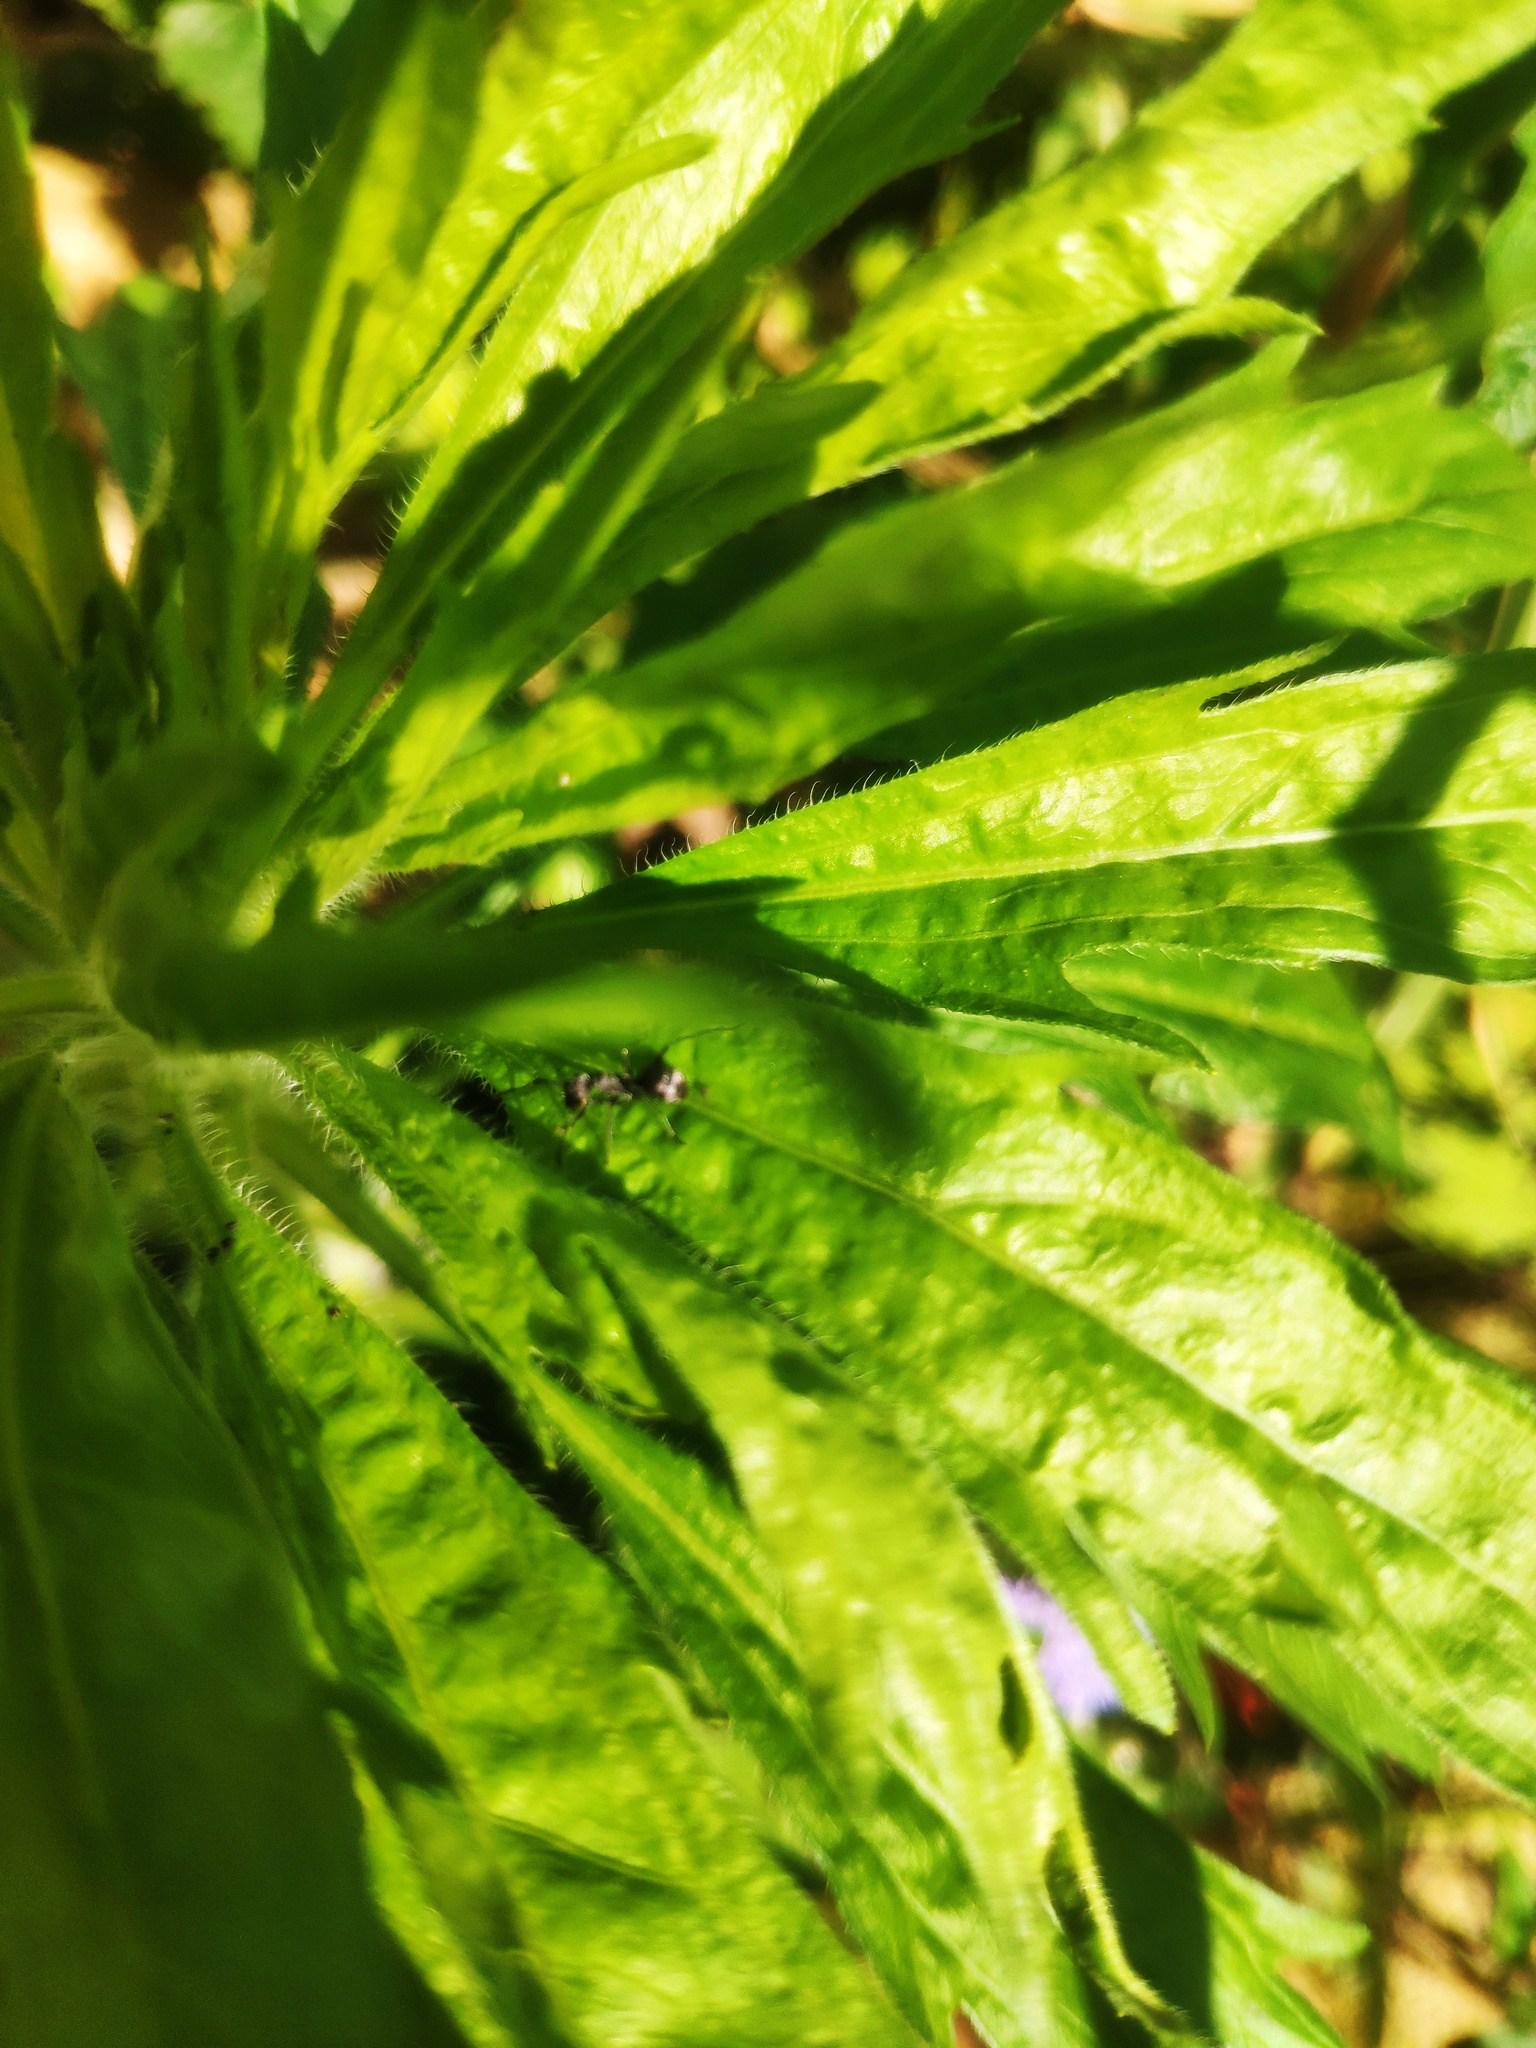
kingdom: Animalia
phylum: Arthropoda
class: Insecta
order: Hymenoptera
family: Formicidae
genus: Polyrhachis
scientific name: Polyrhachis dives
